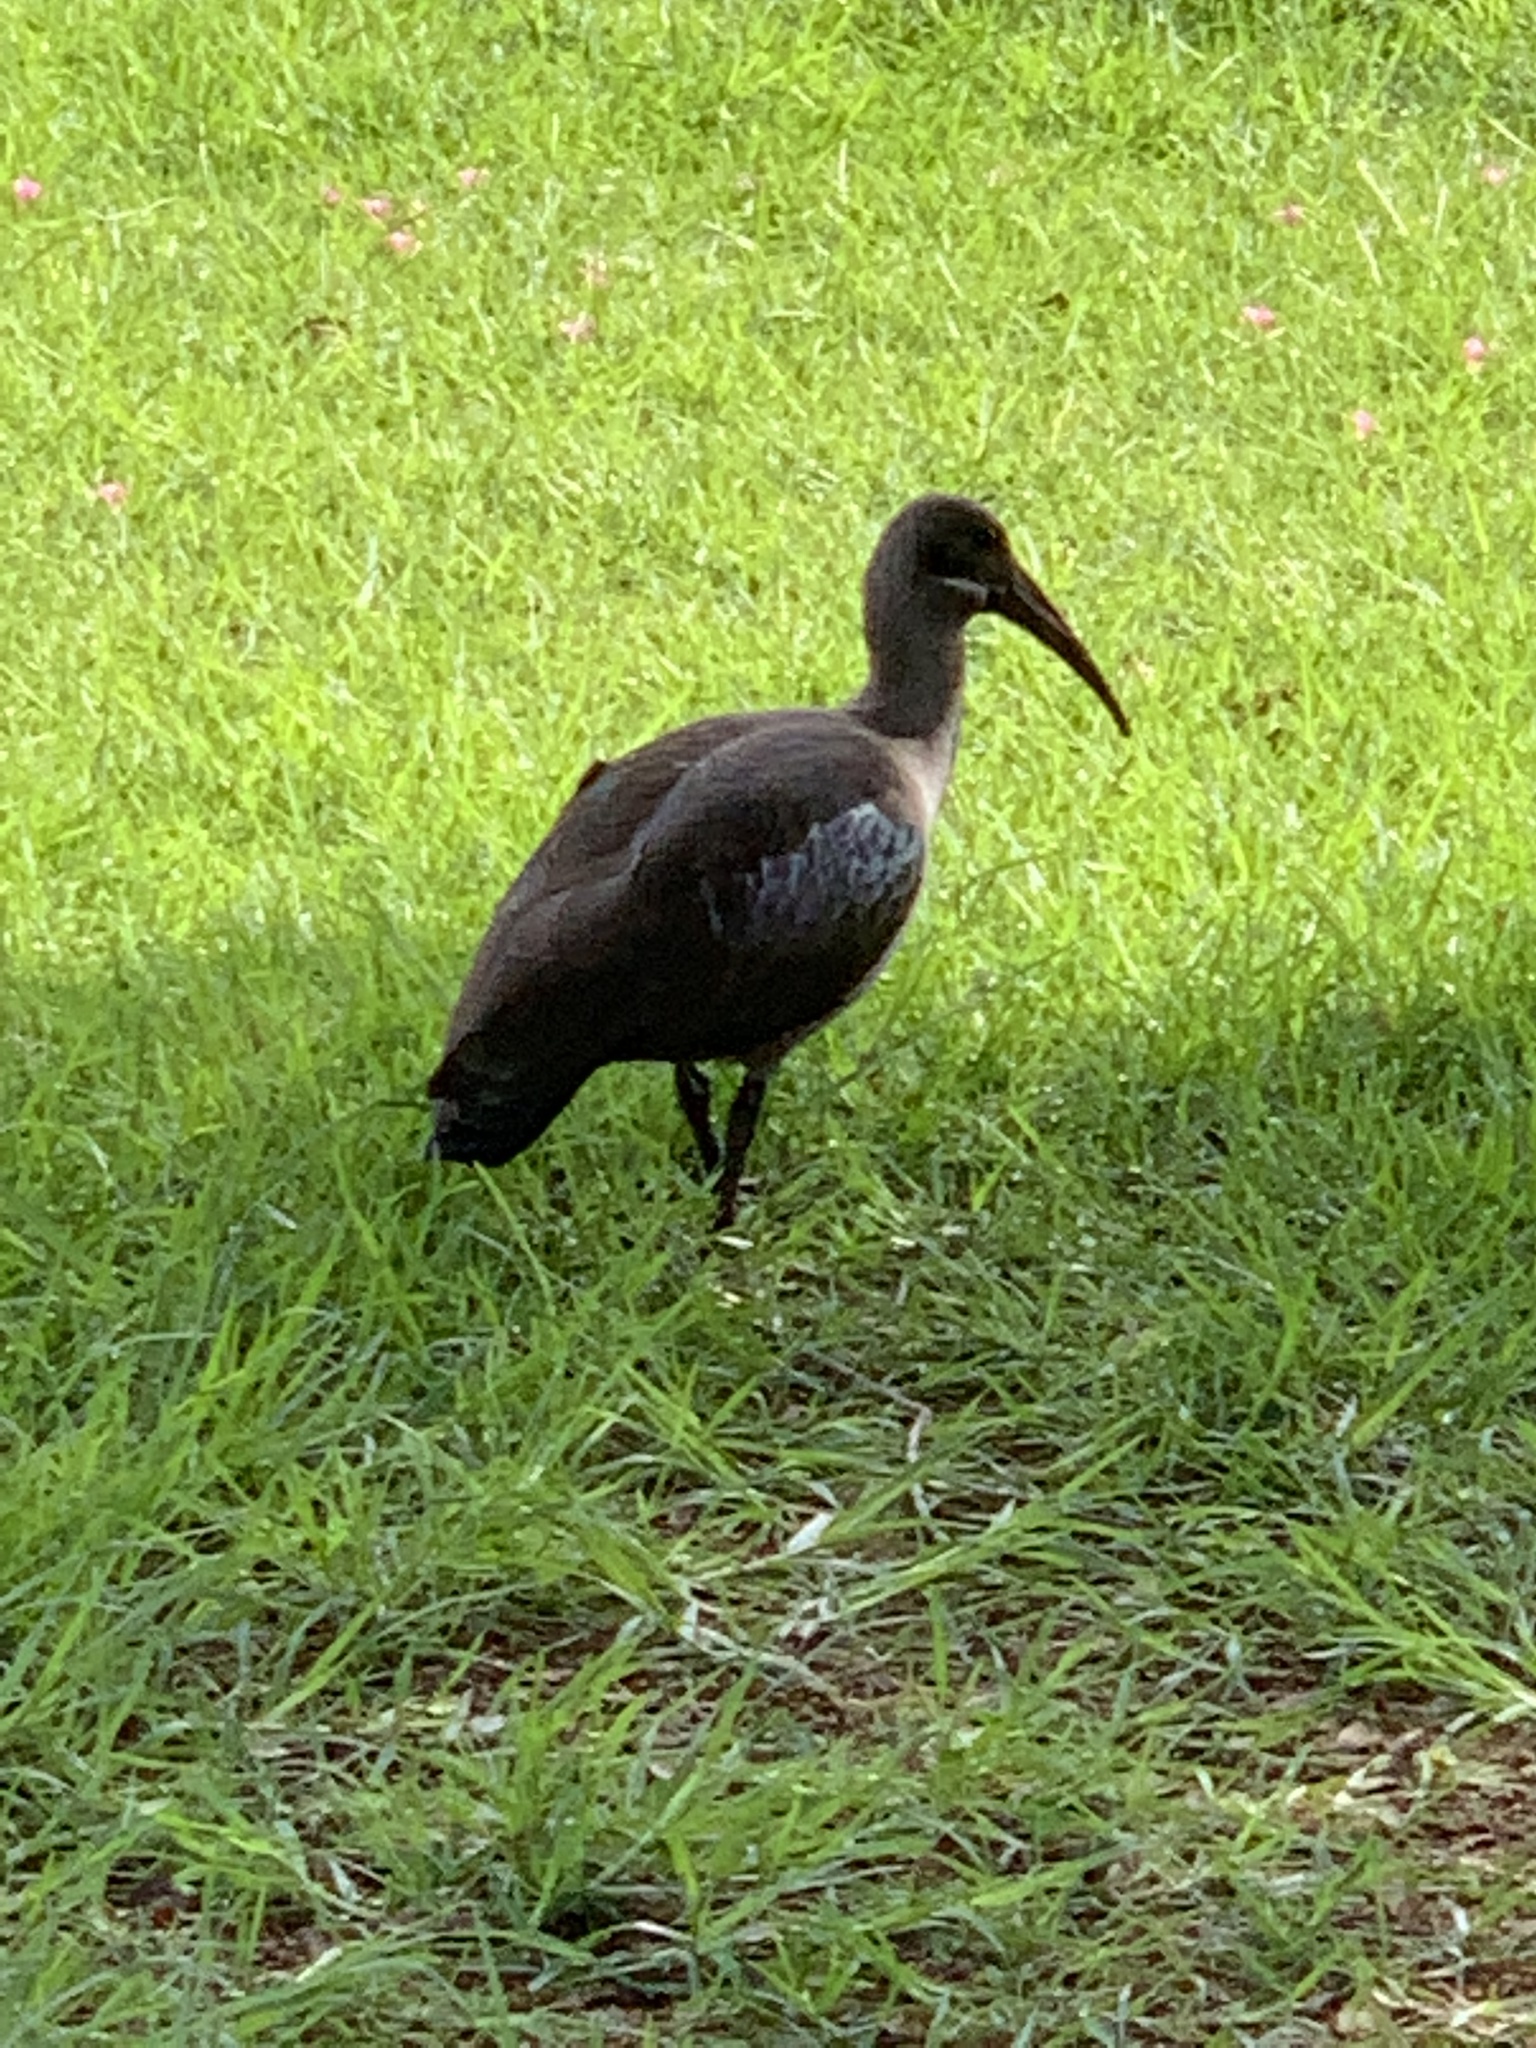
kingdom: Animalia
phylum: Chordata
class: Aves
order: Pelecaniformes
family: Threskiornithidae
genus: Bostrychia
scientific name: Bostrychia hagedash
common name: Hadada ibis
